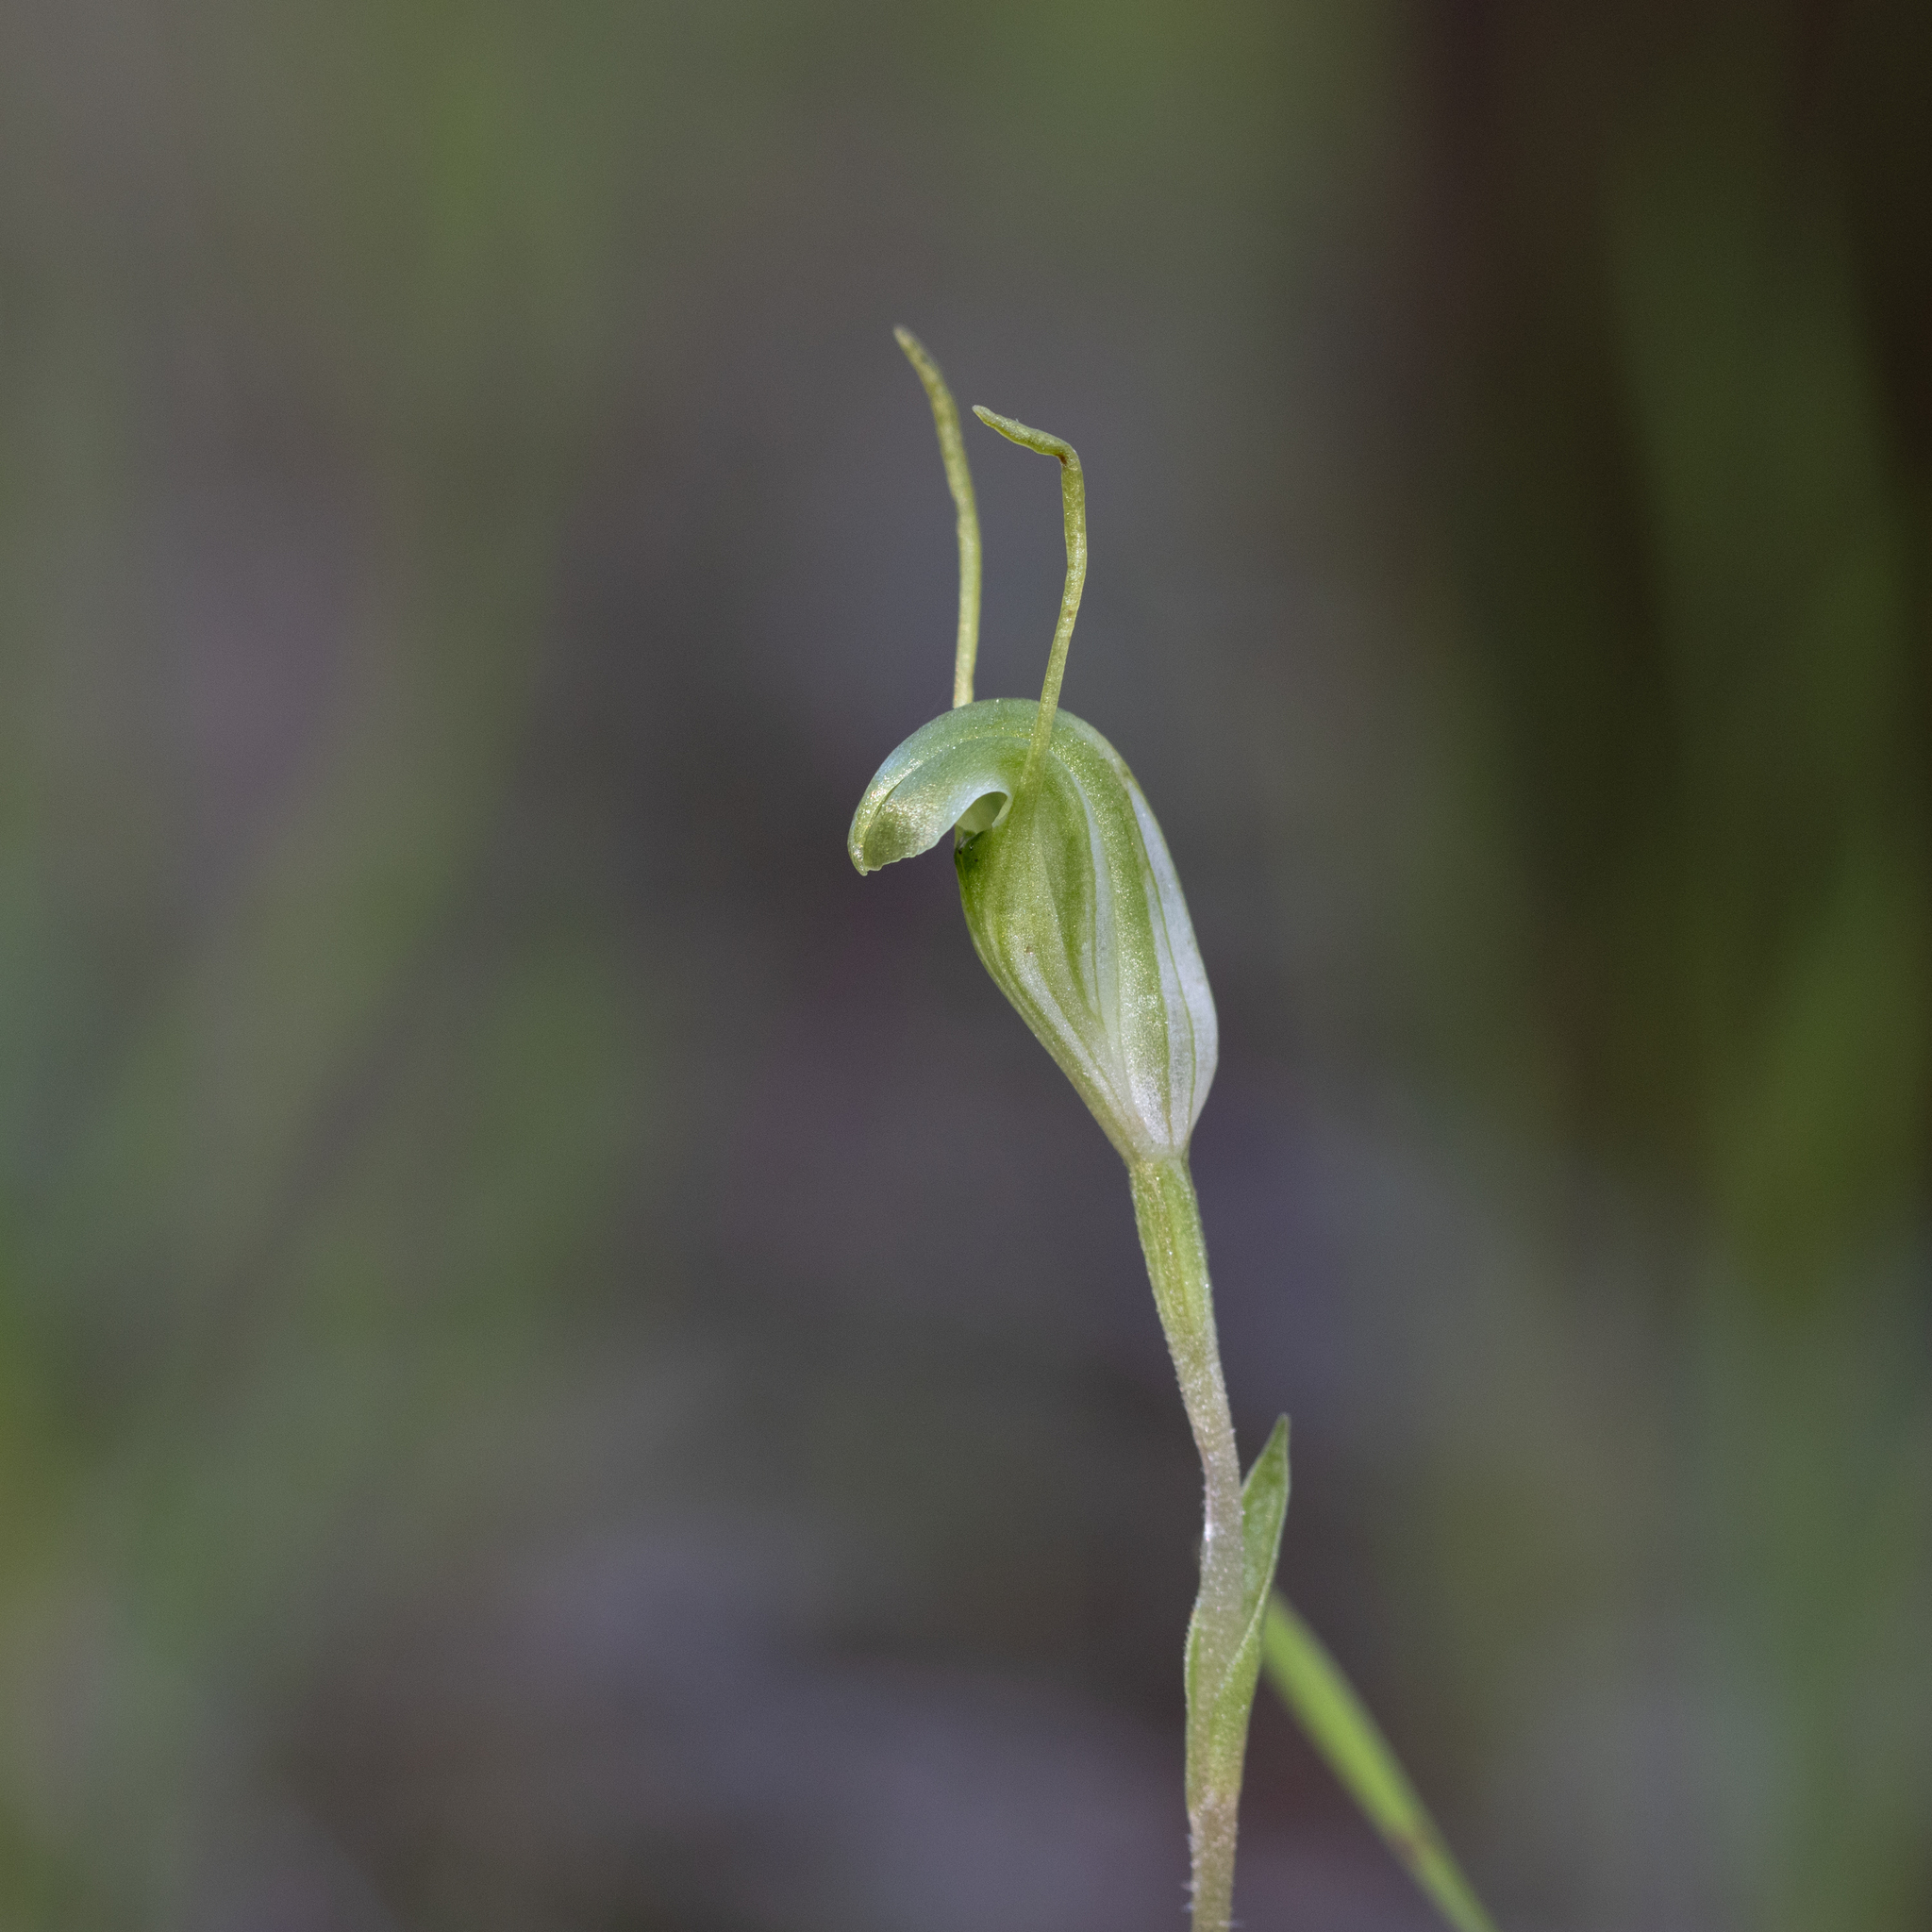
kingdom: Plantae
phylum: Tracheophyta
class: Liliopsida
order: Asparagales
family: Orchidaceae
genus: Pterostylis
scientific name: Pterostylis nana
